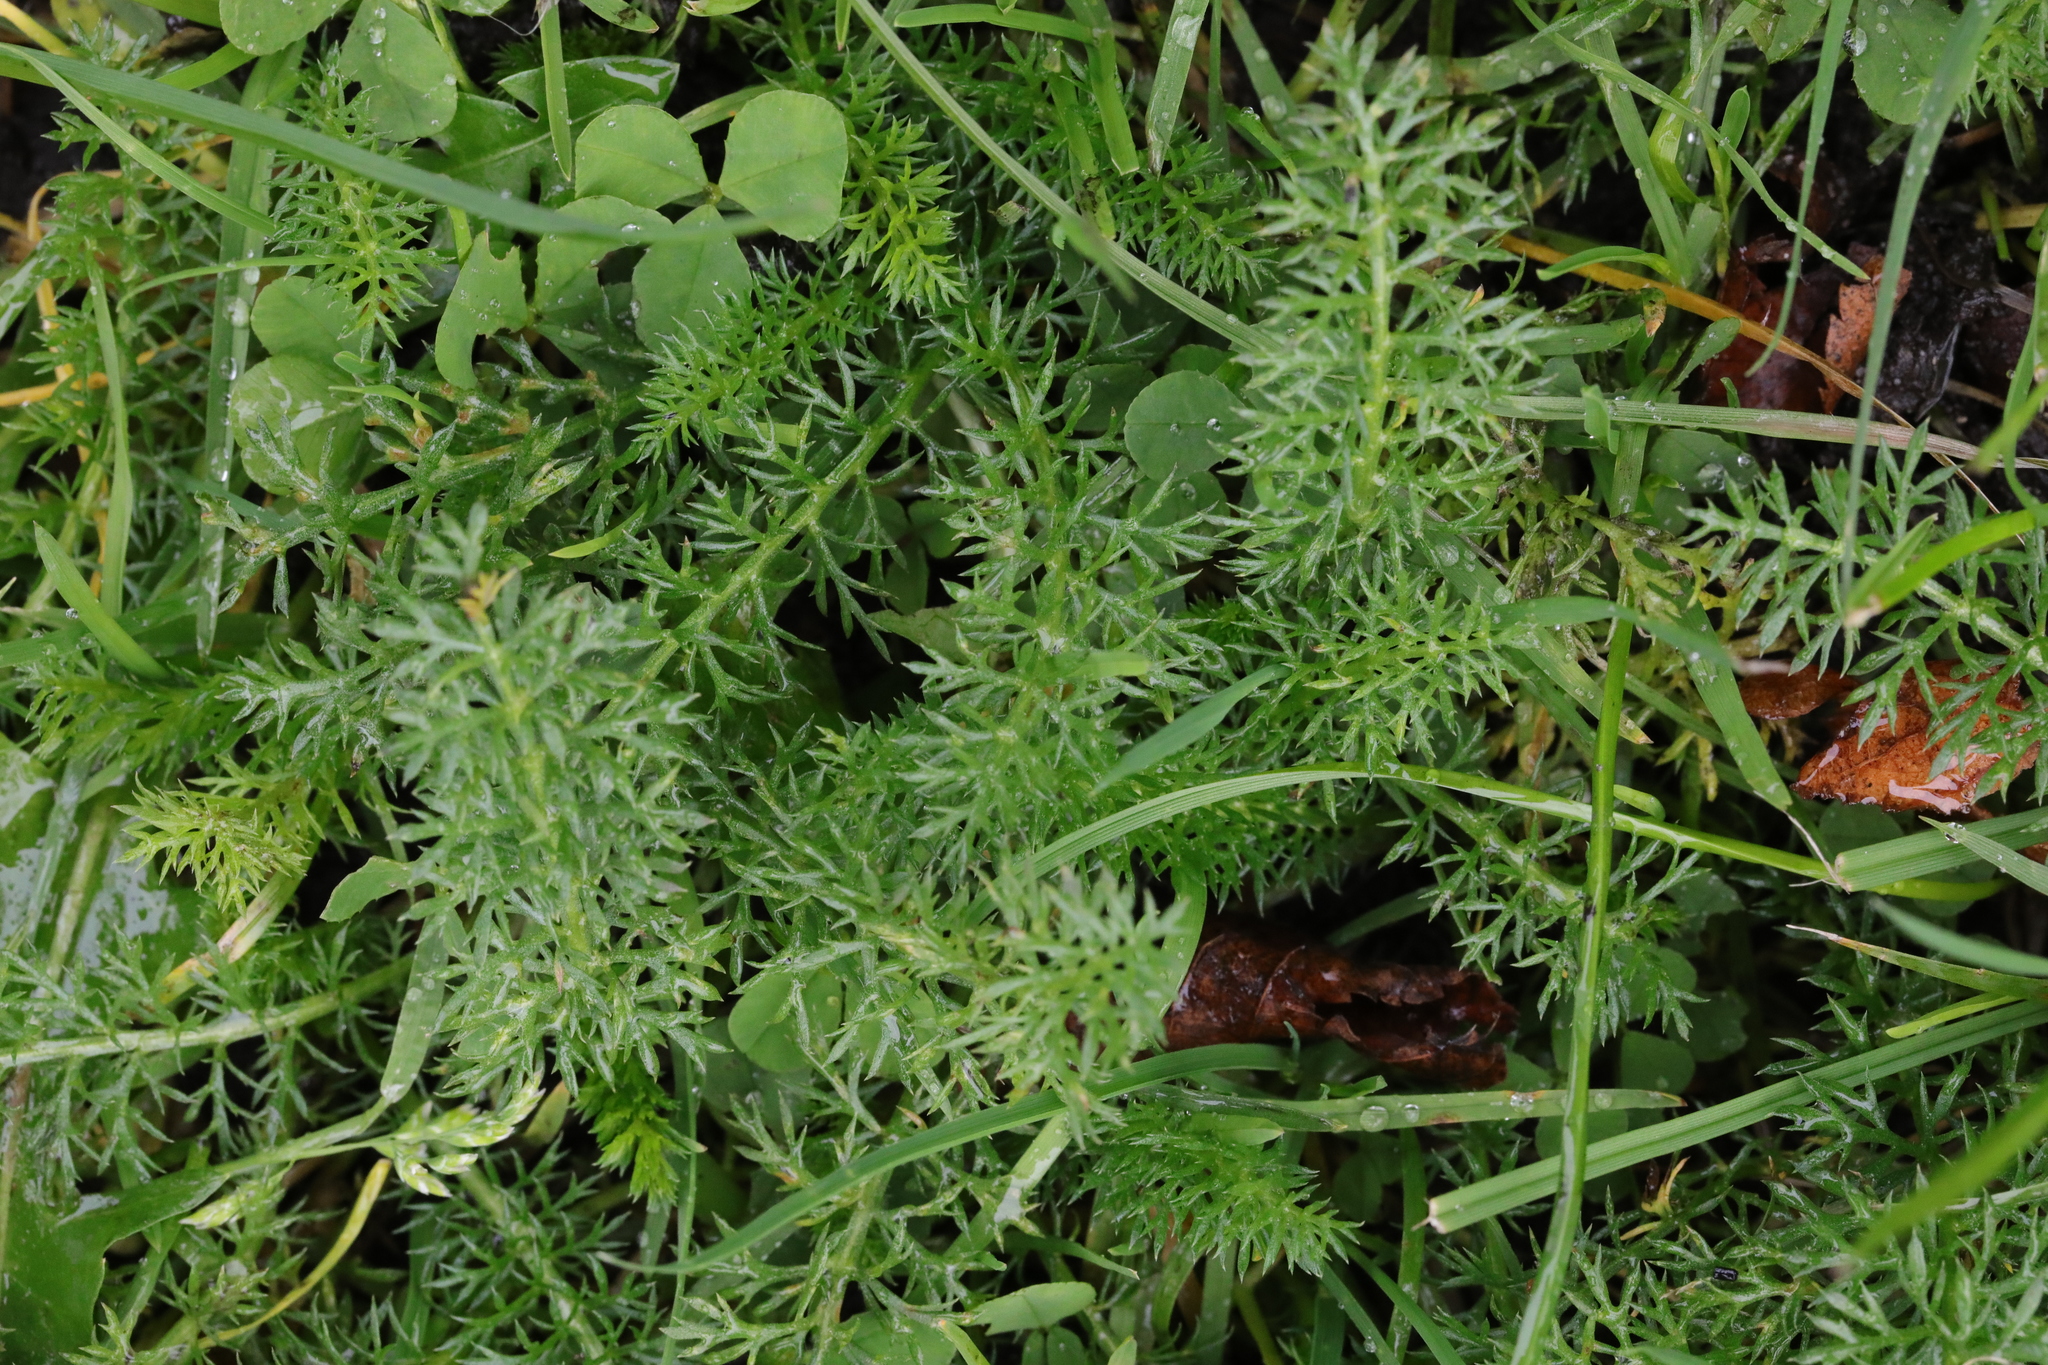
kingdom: Plantae
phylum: Tracheophyta
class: Magnoliopsida
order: Asterales
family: Asteraceae
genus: Achillea
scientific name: Achillea millefolium
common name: Yarrow
